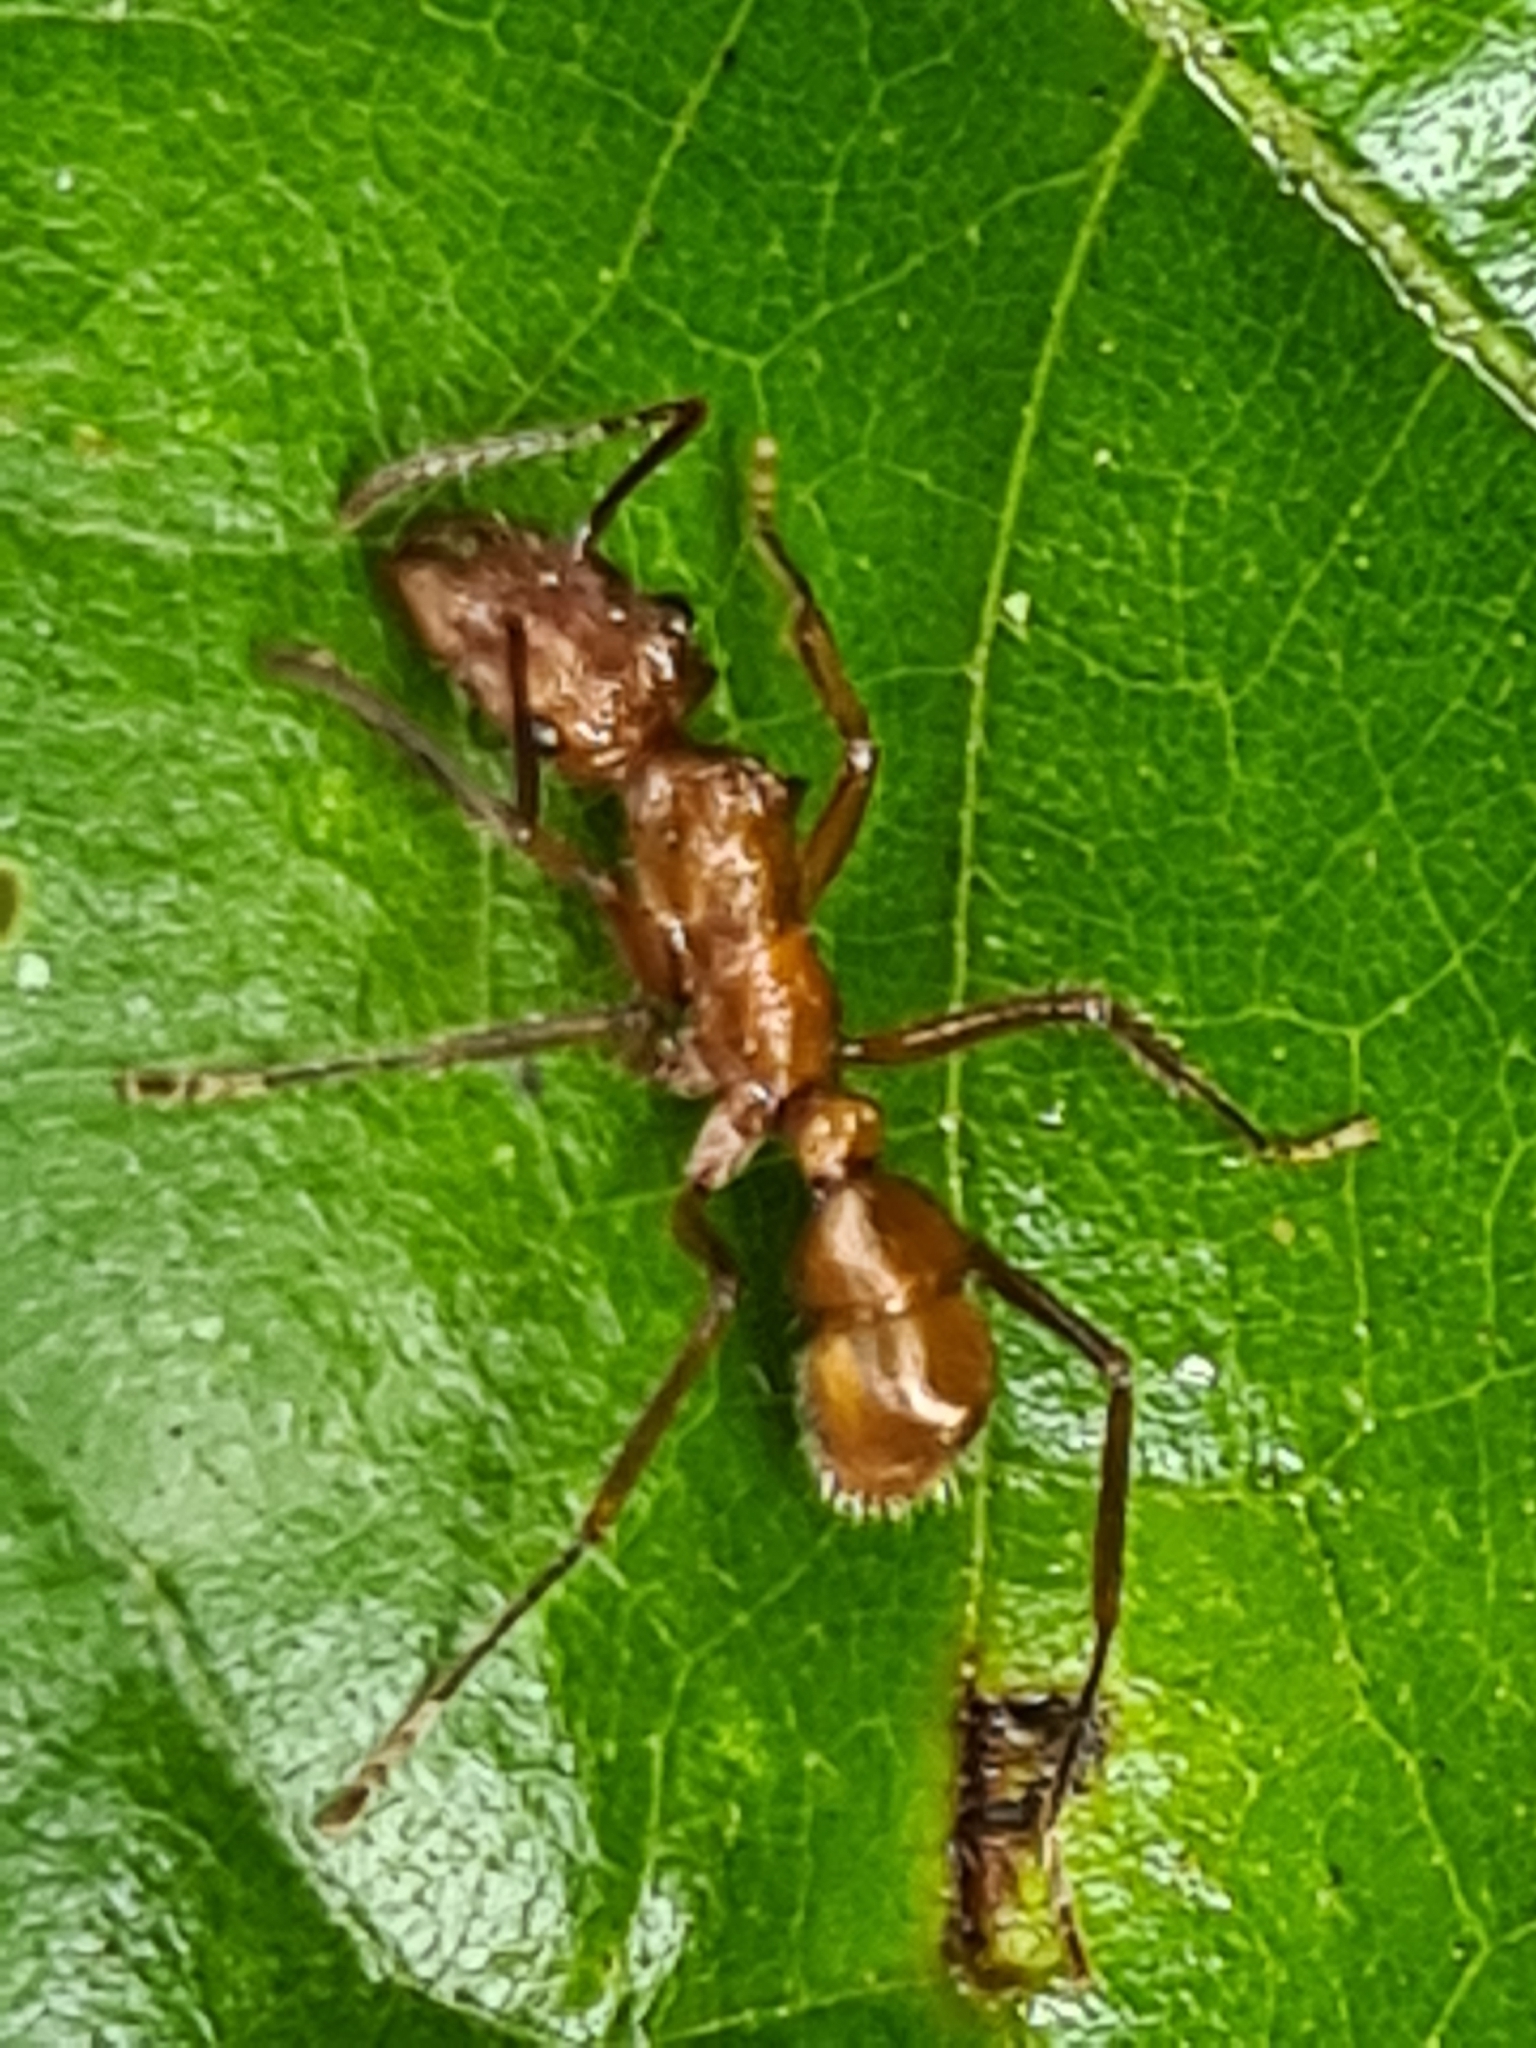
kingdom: Animalia
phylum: Arthropoda
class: Insecta
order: Hymenoptera
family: Formicidae
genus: Ectatomma
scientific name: Ectatomma tuberculatum
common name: Ant
